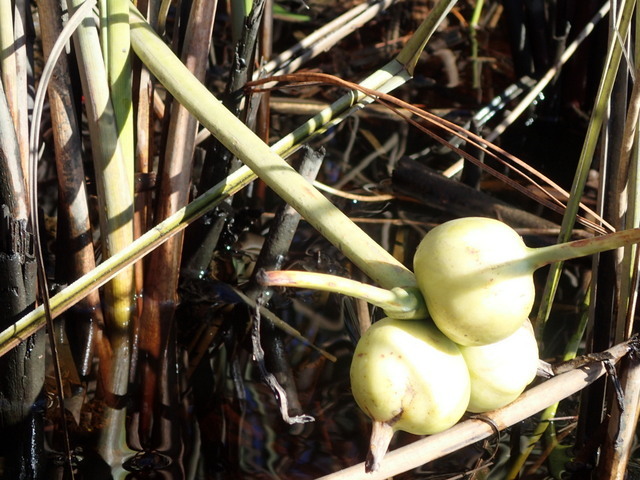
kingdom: Plantae
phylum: Tracheophyta
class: Liliopsida
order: Asparagales
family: Amaryllidaceae
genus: Crinum
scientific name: Crinum americanum
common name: Florida swamp-lily
